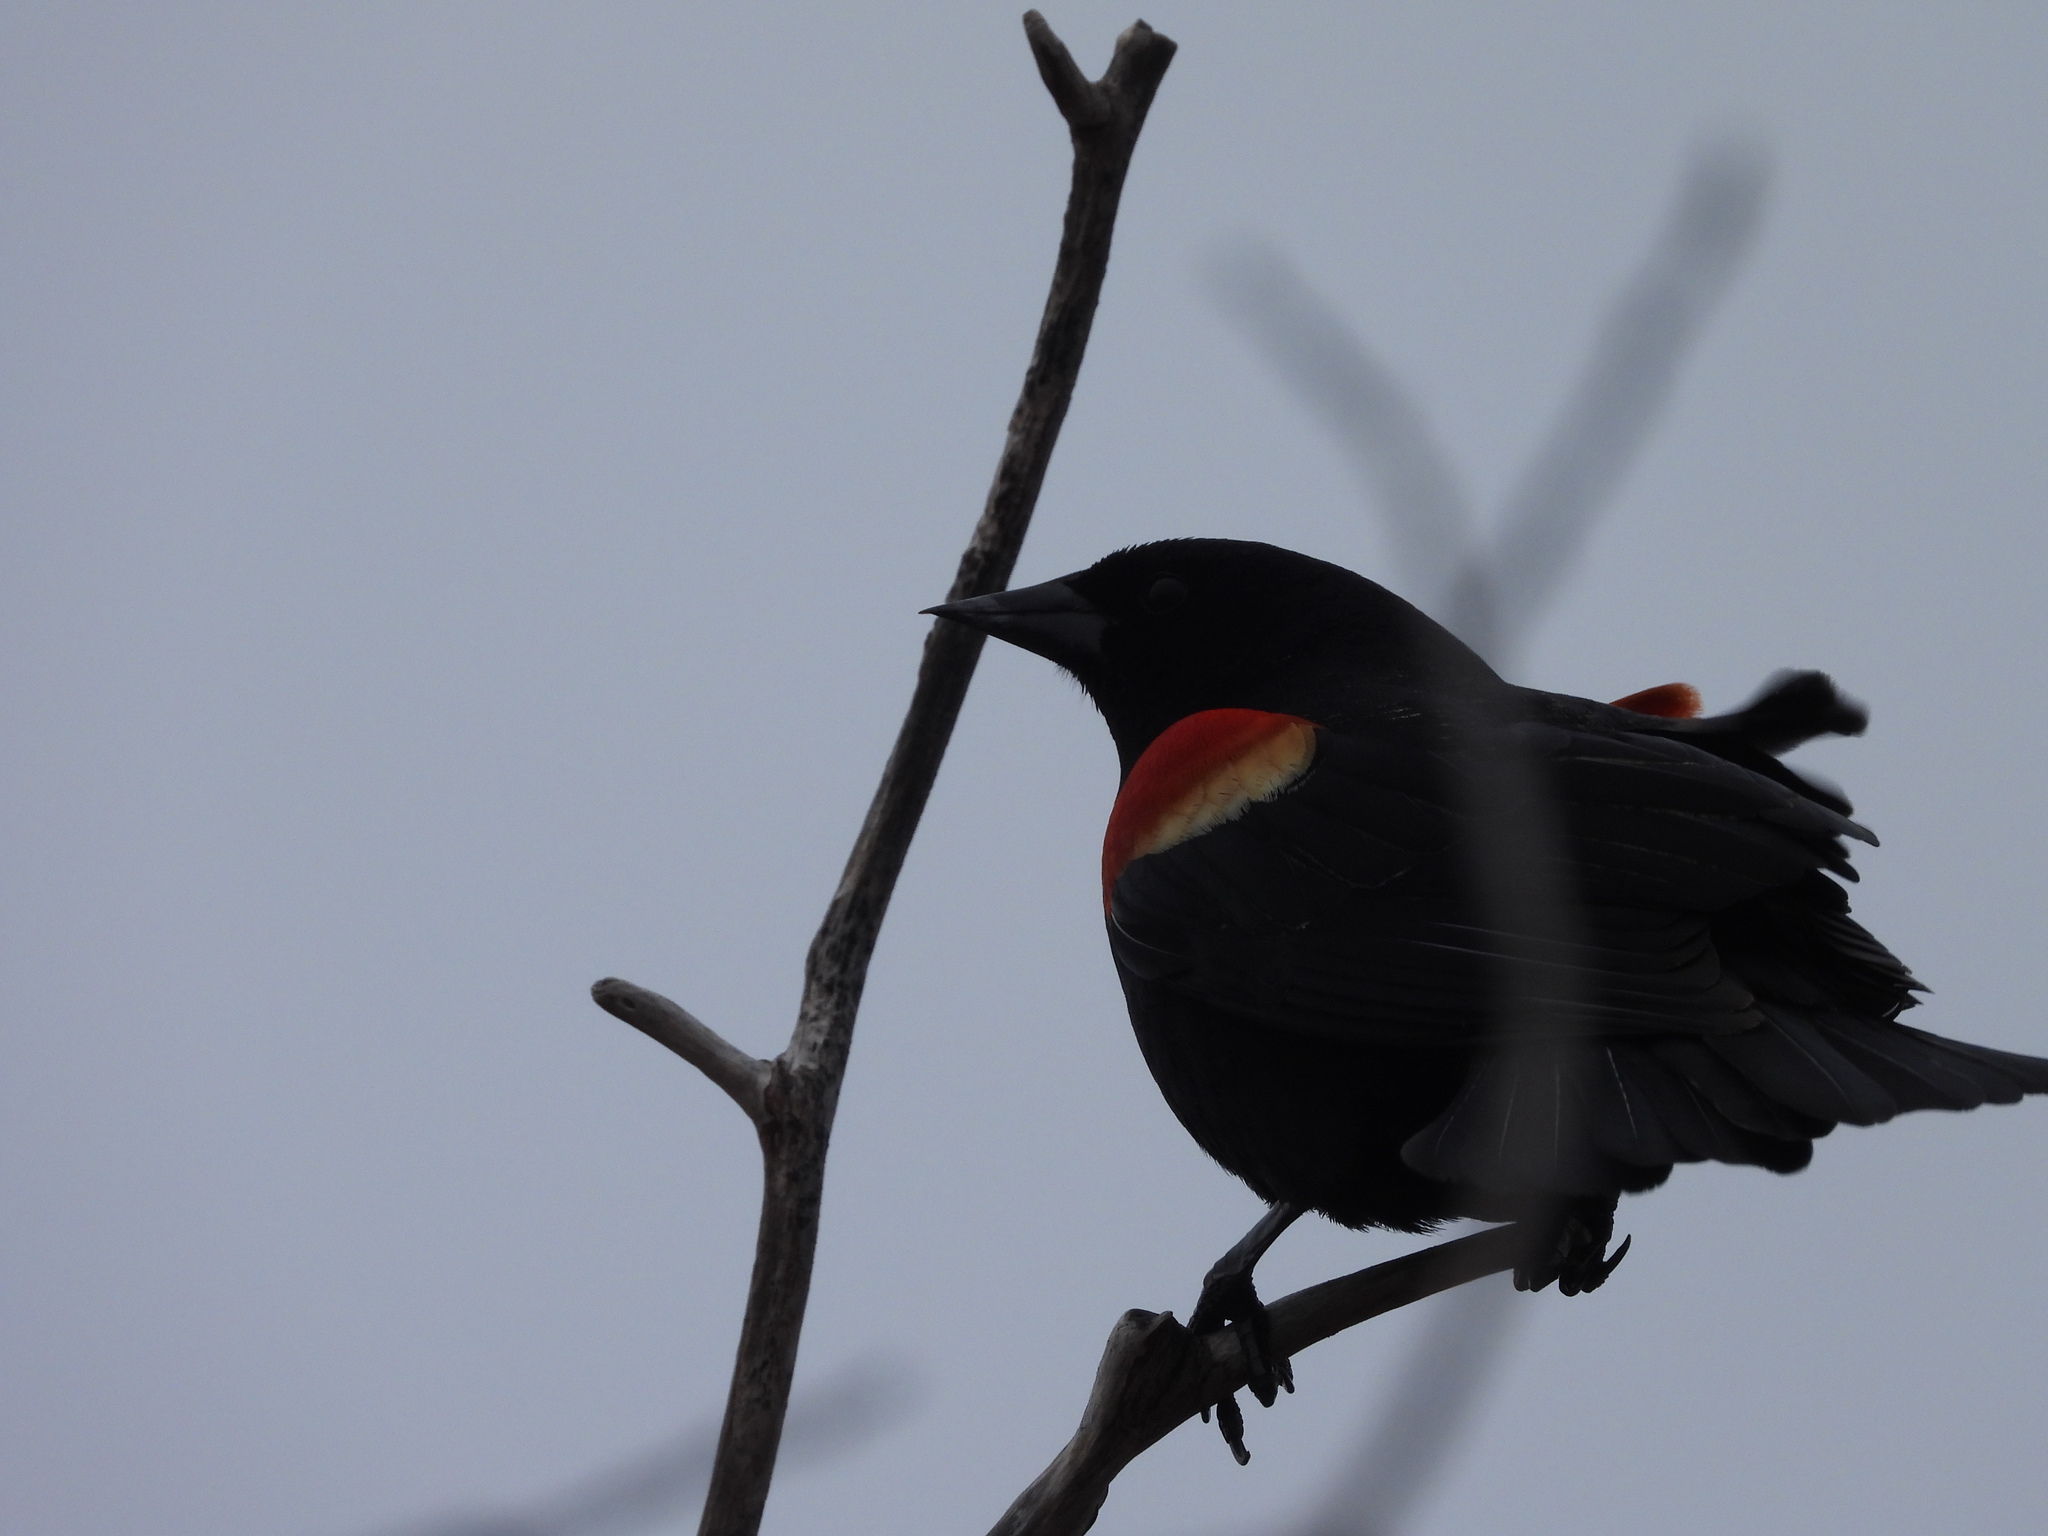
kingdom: Animalia
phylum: Chordata
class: Aves
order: Passeriformes
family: Icteridae
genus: Agelaius
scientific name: Agelaius phoeniceus
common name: Red-winged blackbird
